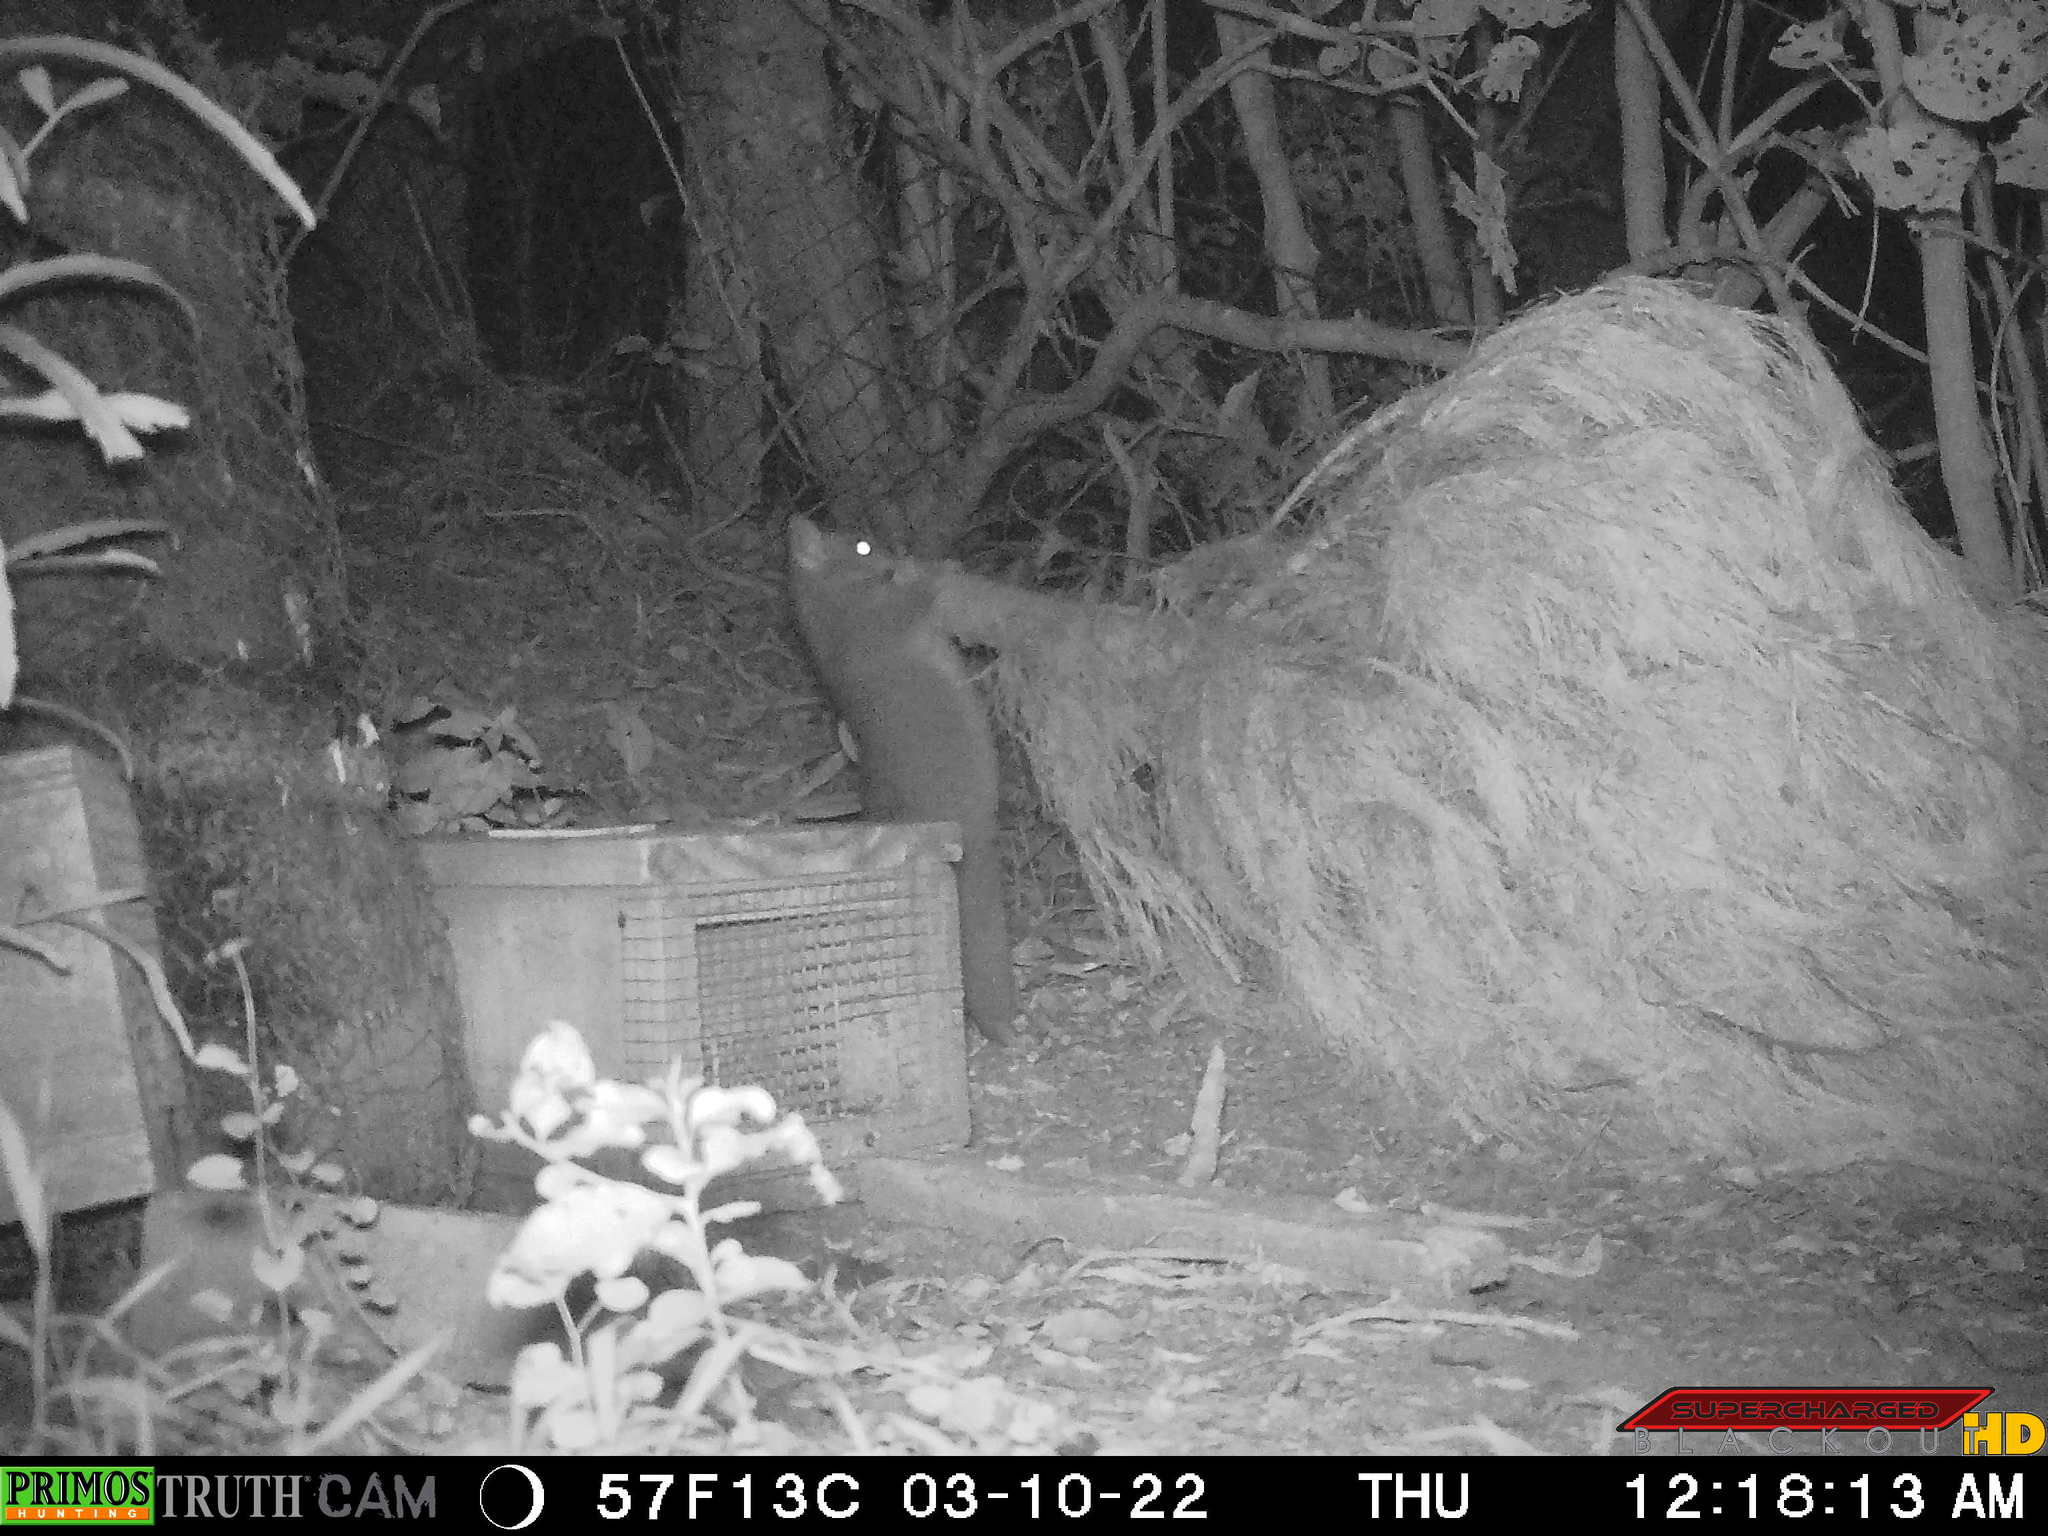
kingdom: Animalia
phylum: Chordata
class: Mammalia
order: Diprotodontia
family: Phalangeridae
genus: Trichosurus
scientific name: Trichosurus vulpecula
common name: Common brushtail
